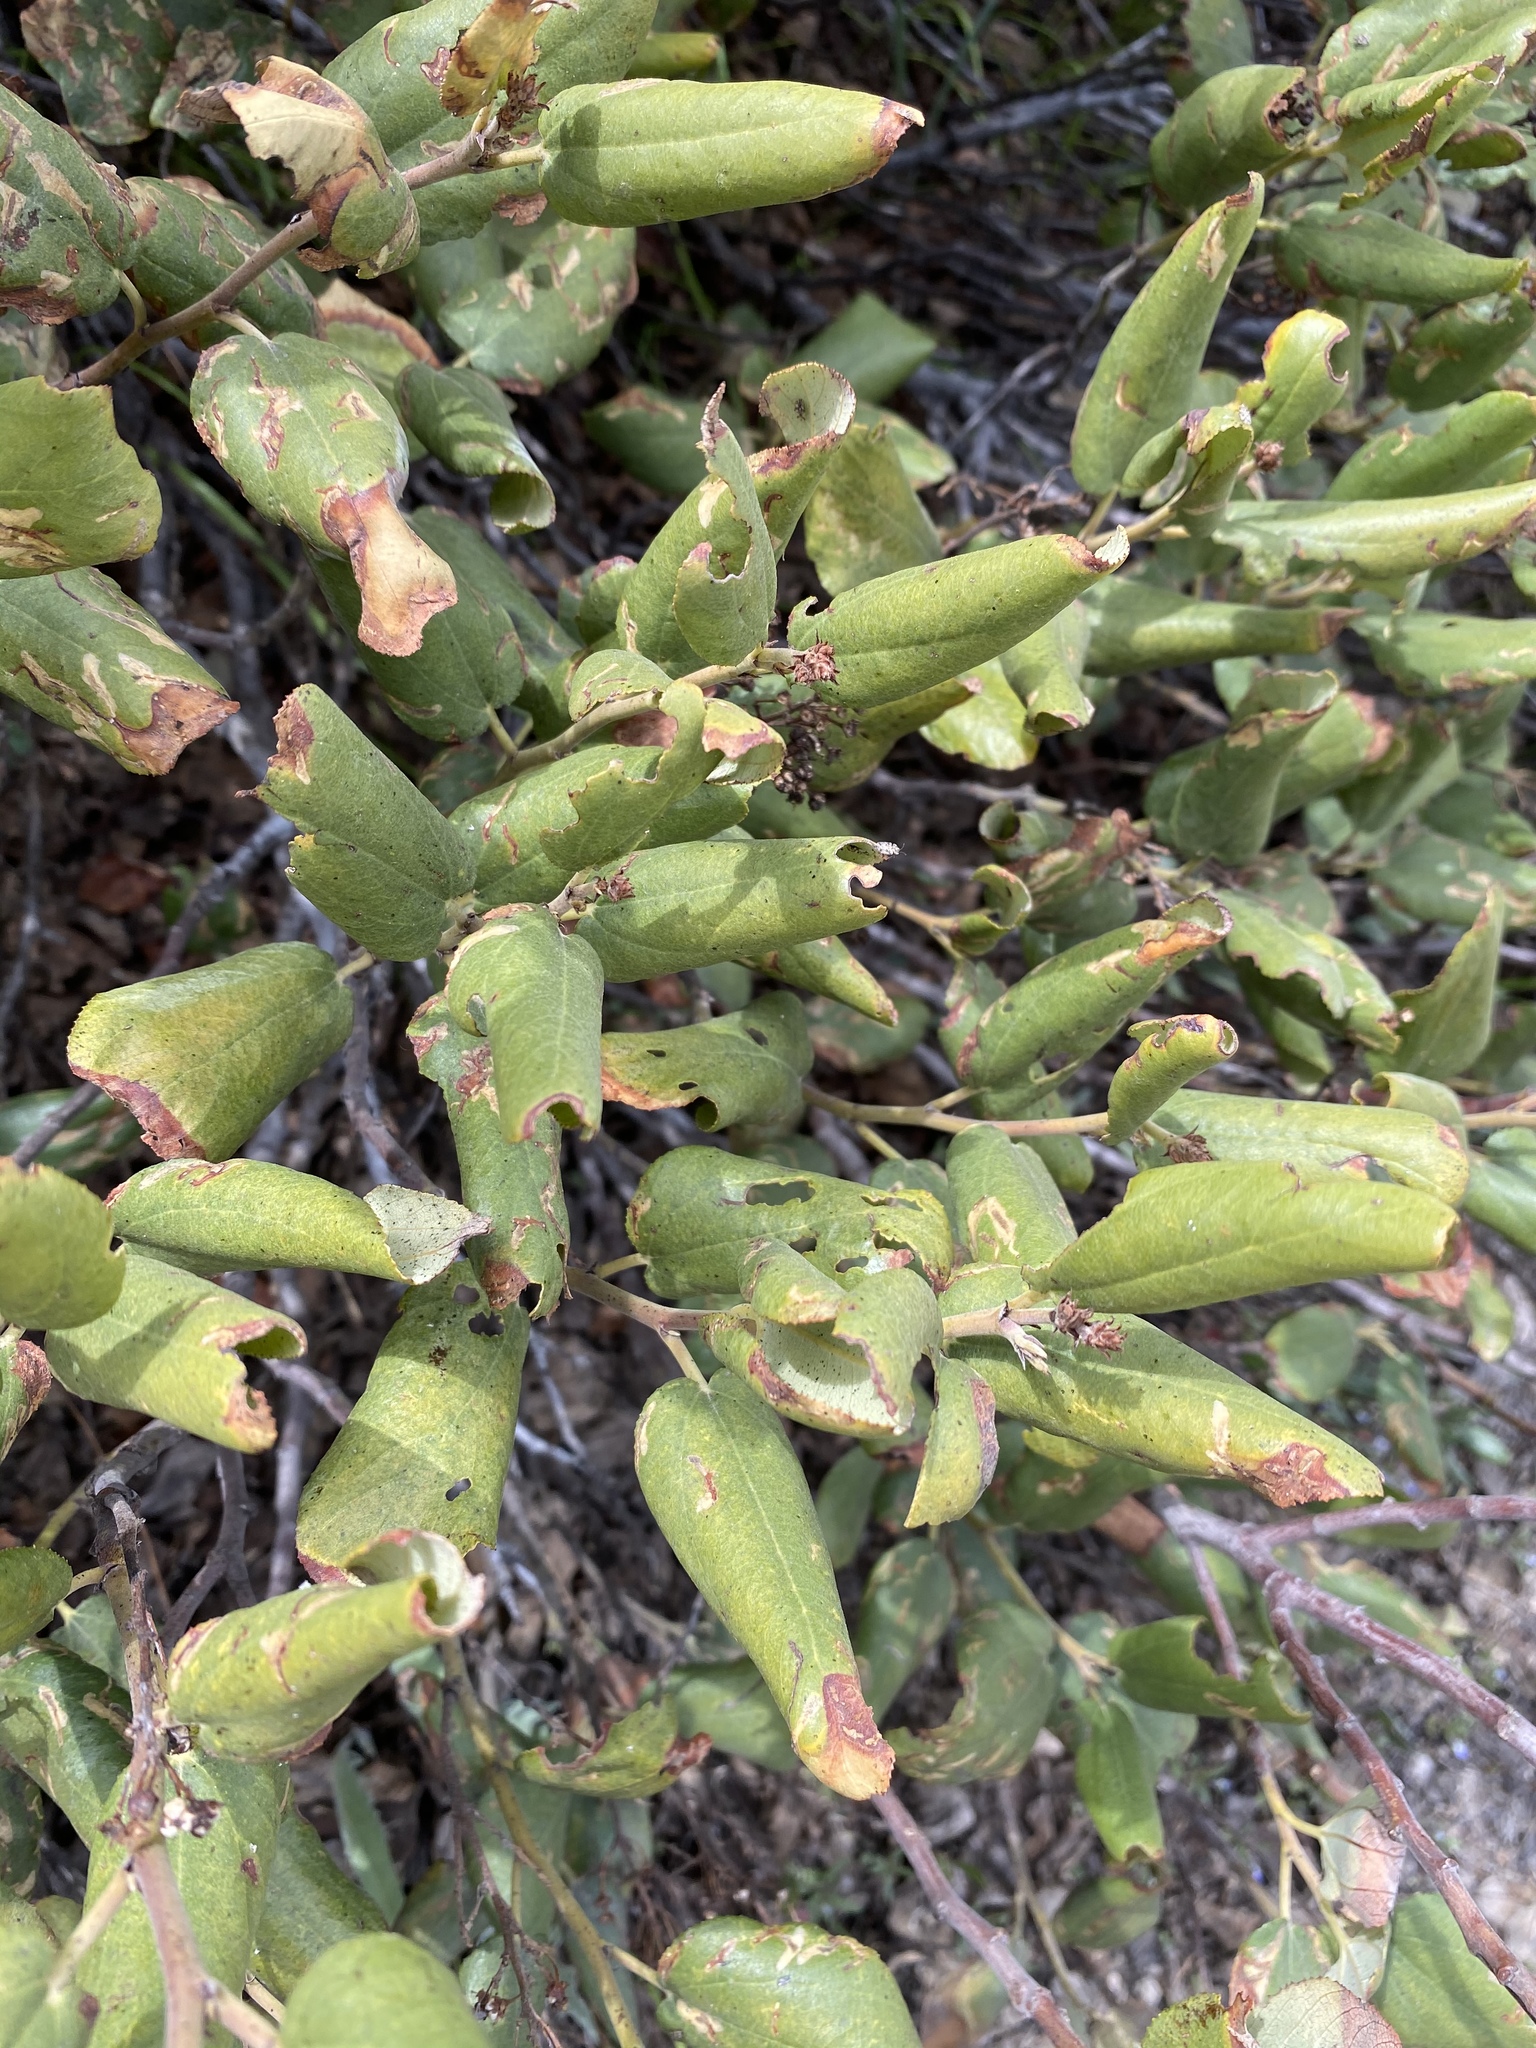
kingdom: Plantae
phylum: Tracheophyta
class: Magnoliopsida
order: Rosales
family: Rhamnaceae
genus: Ceanothus
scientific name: Ceanothus velutinus
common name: Snowbrush
